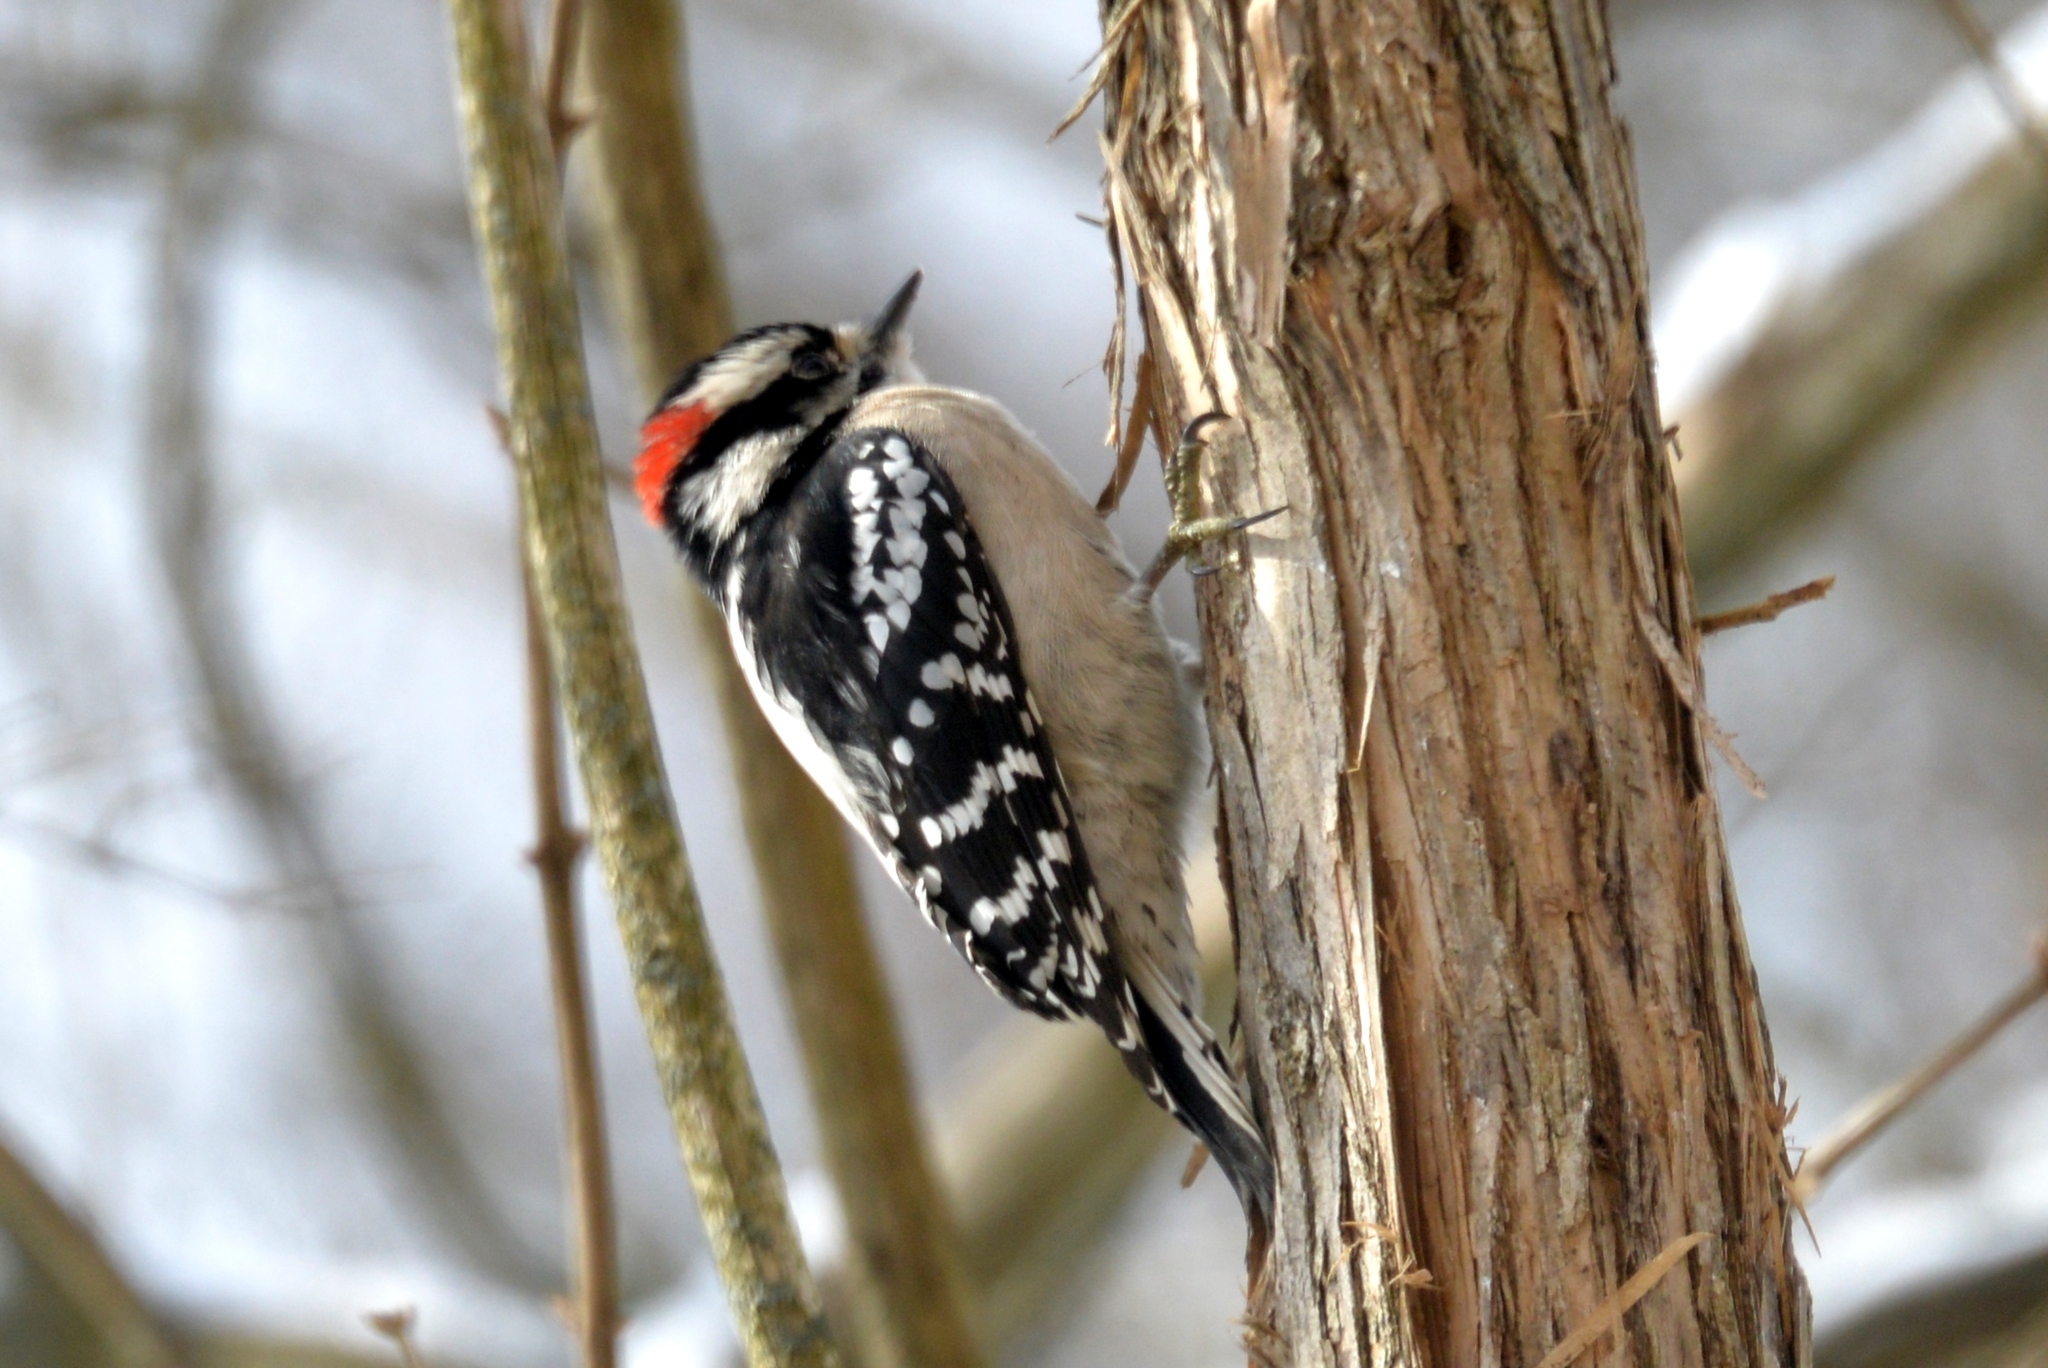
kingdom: Animalia
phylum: Chordata
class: Aves
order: Piciformes
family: Picidae
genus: Dryobates
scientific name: Dryobates pubescens
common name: Downy woodpecker
